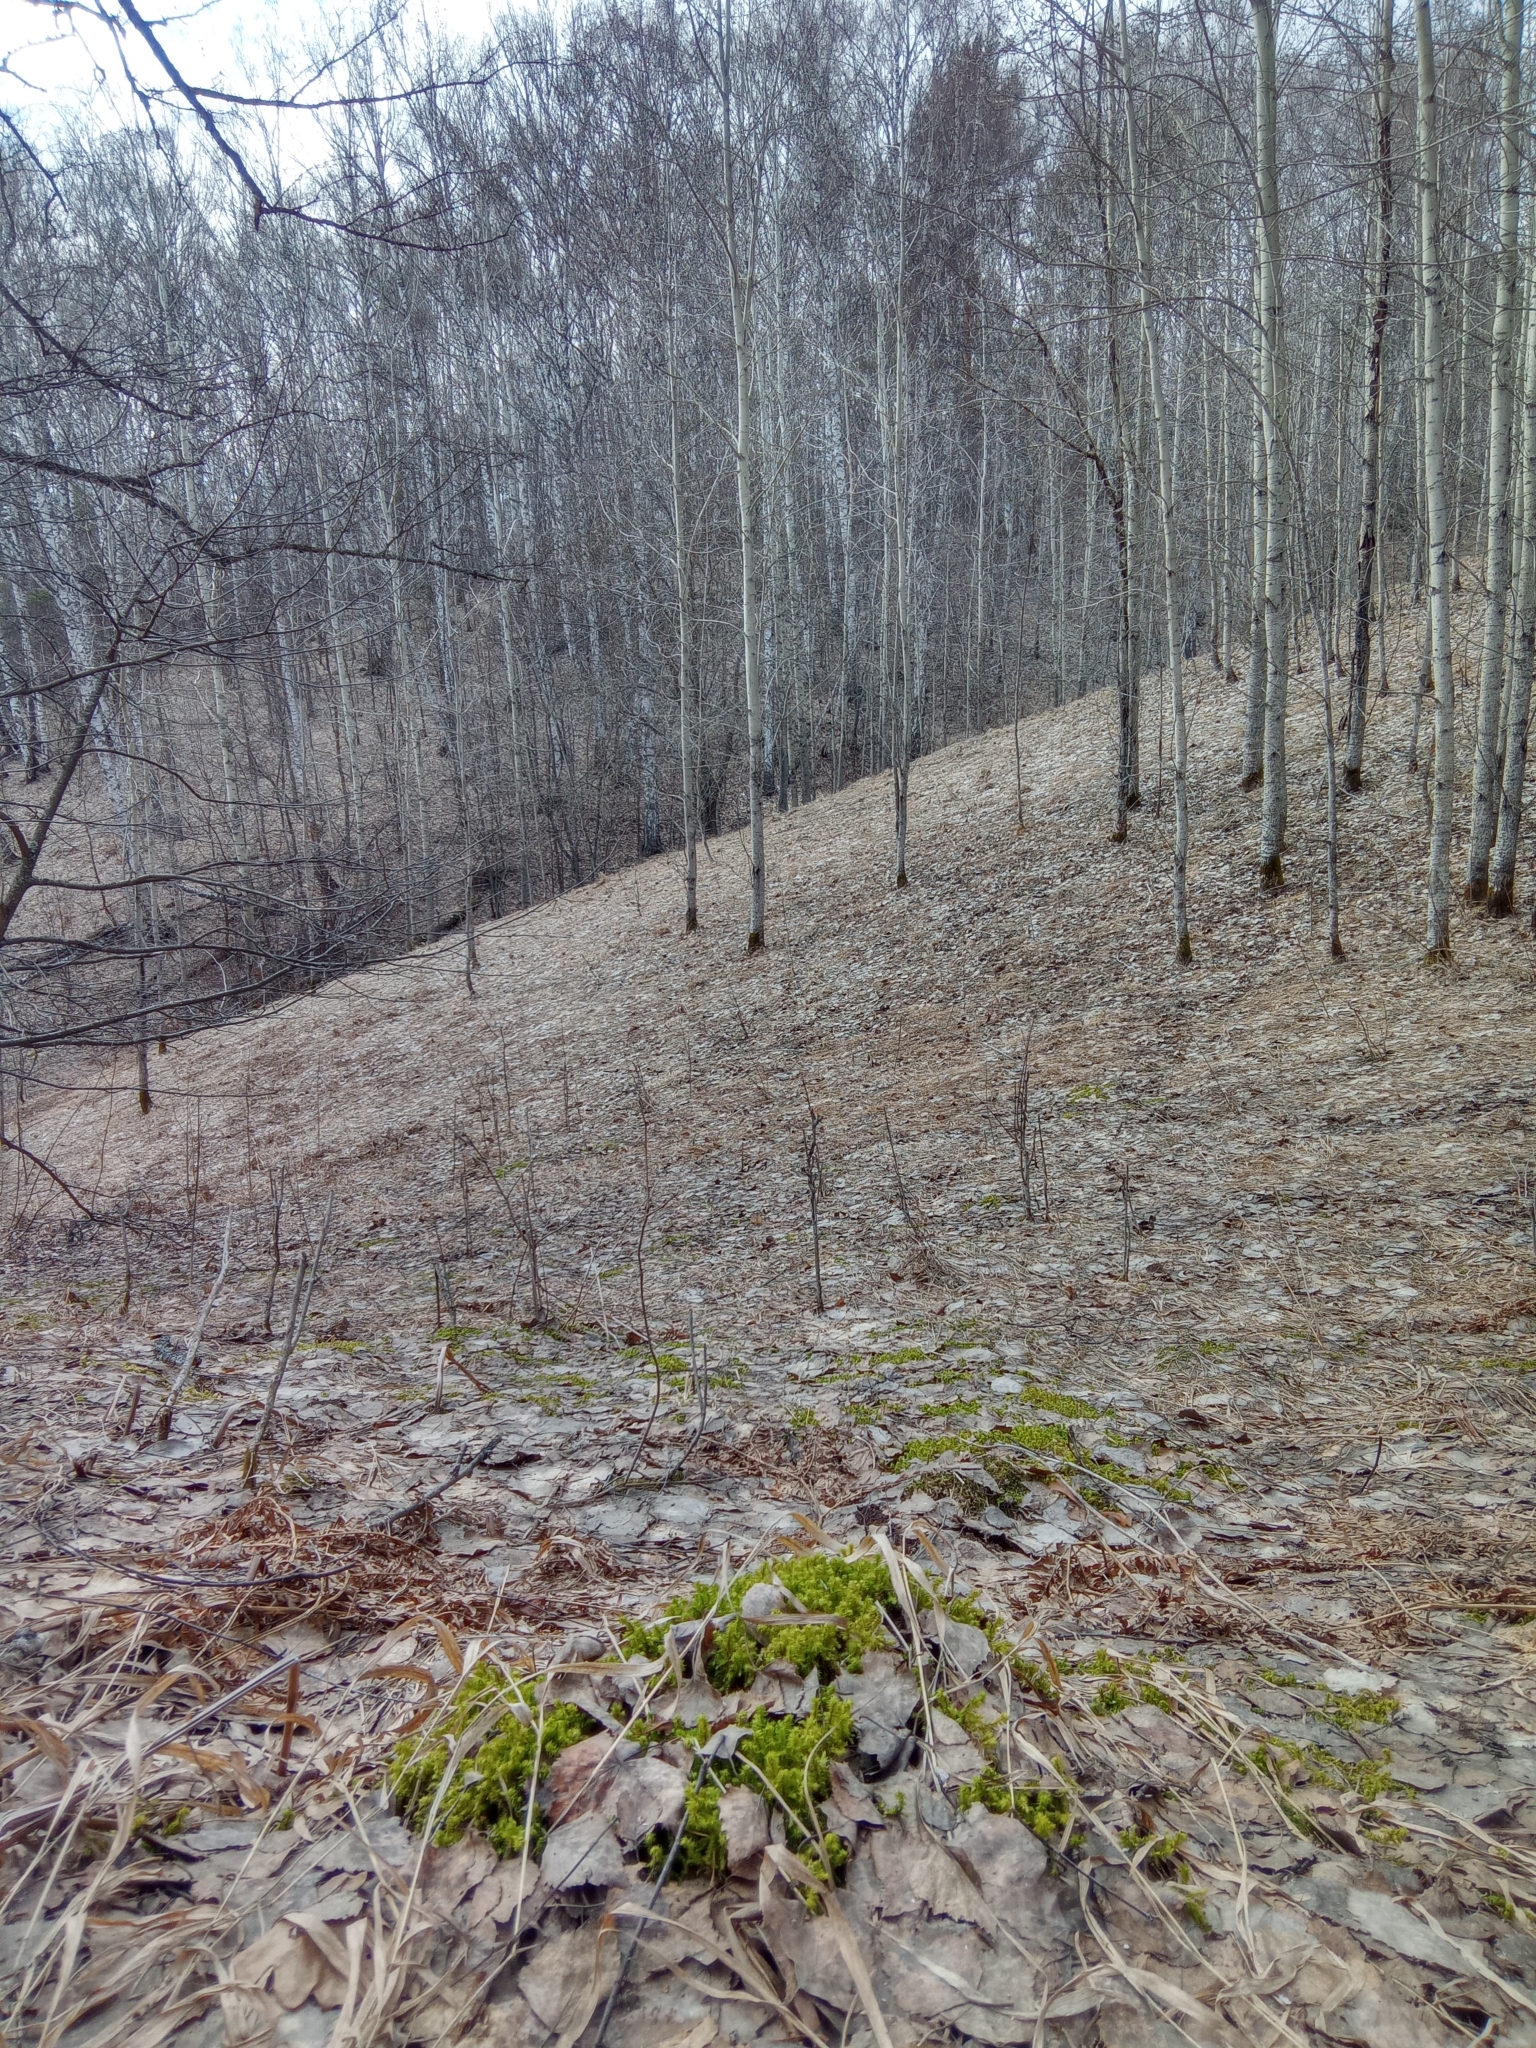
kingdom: Plantae
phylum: Bryophyta
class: Bryopsida
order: Hypnales
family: Hylocomiaceae
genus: Hylocomiadelphus
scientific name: Hylocomiadelphus triquetrus
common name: Rough goose neck moss
